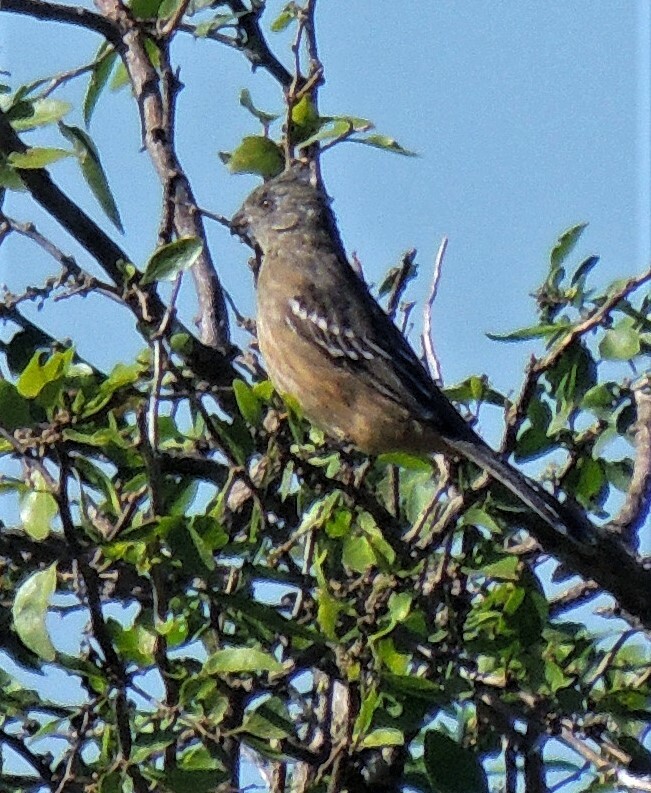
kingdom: Animalia
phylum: Chordata
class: Aves
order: Passeriformes
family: Cotingidae
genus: Phytotoma
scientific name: Phytotoma rutila
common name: White-tipped plantcutter
